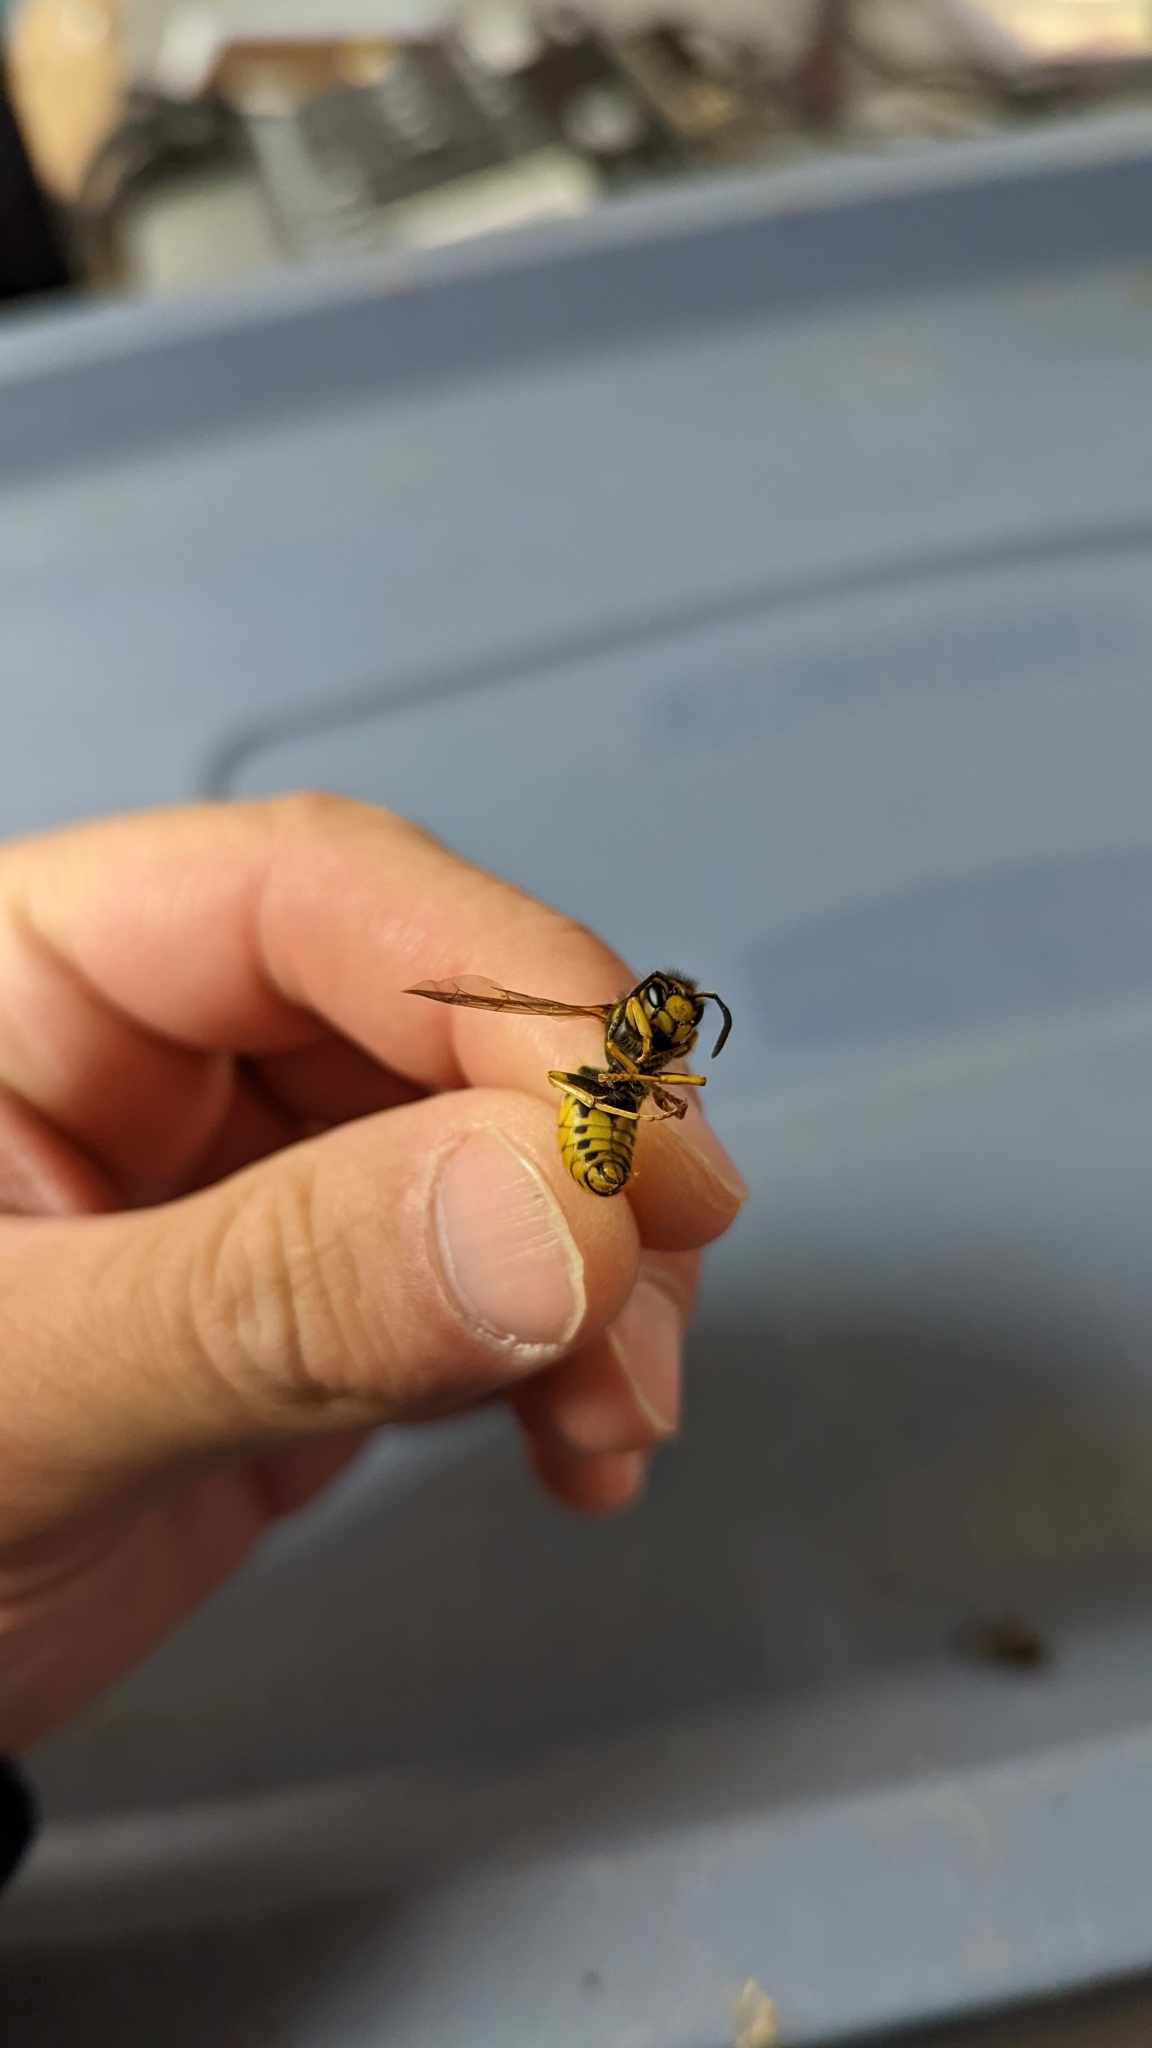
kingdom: Animalia
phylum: Arthropoda
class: Insecta
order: Hymenoptera
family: Vespidae
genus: Vespula
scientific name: Vespula germanica
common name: German wasp
